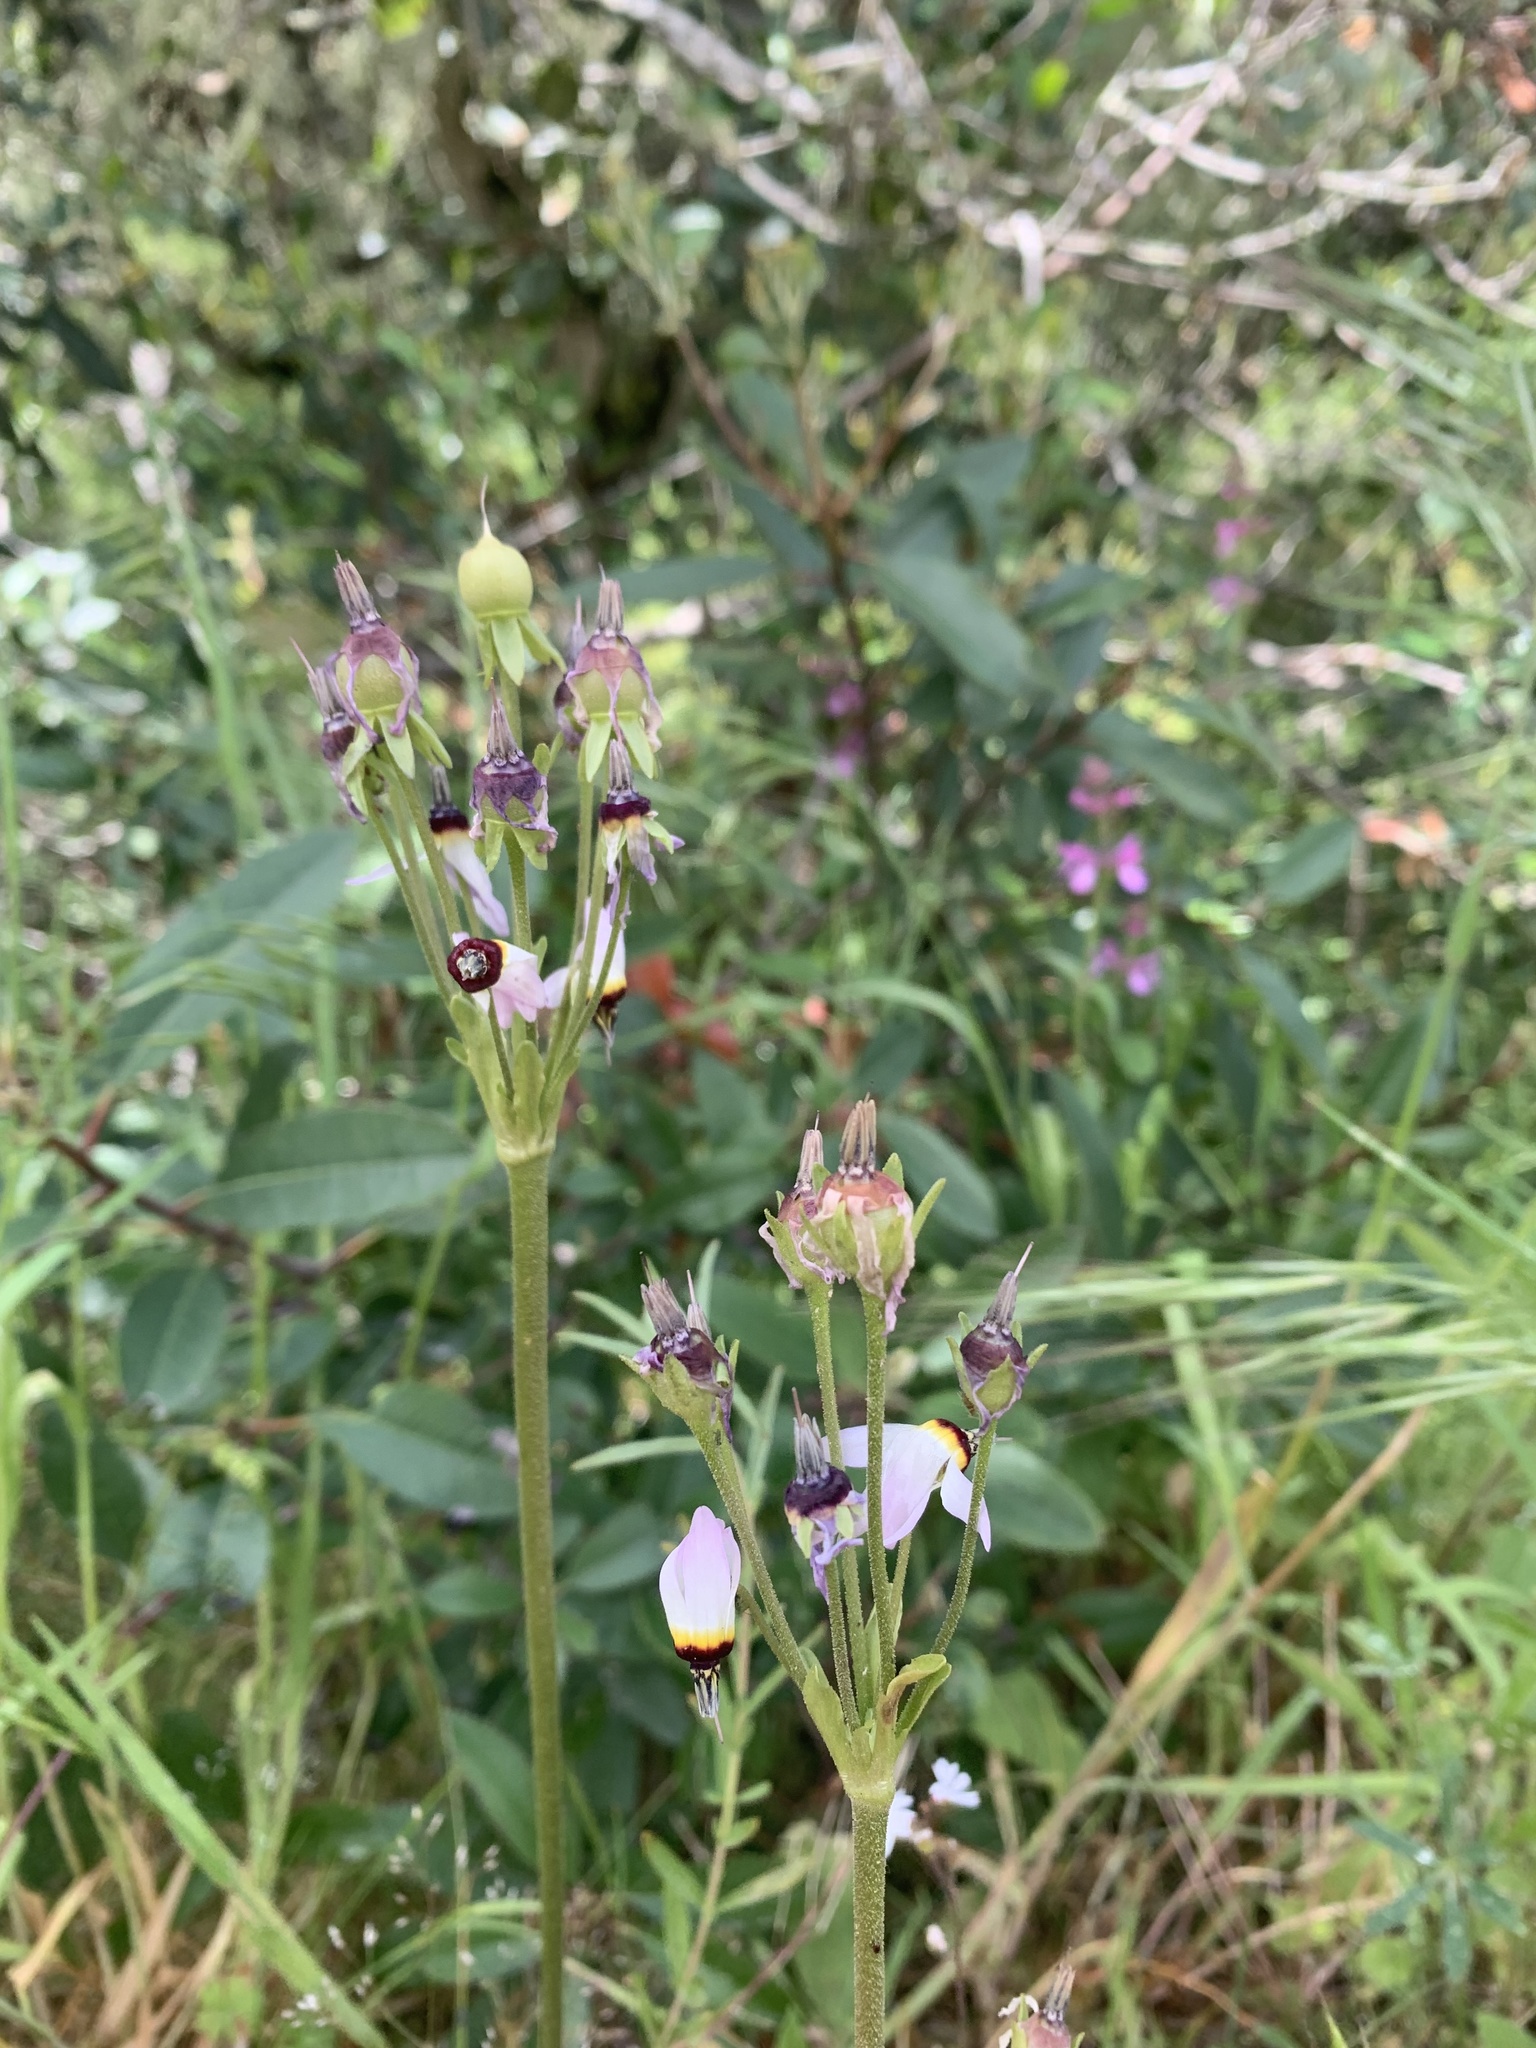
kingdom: Plantae
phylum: Tracheophyta
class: Magnoliopsida
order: Ericales
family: Primulaceae
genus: Dodecatheon
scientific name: Dodecatheon clevelandii
